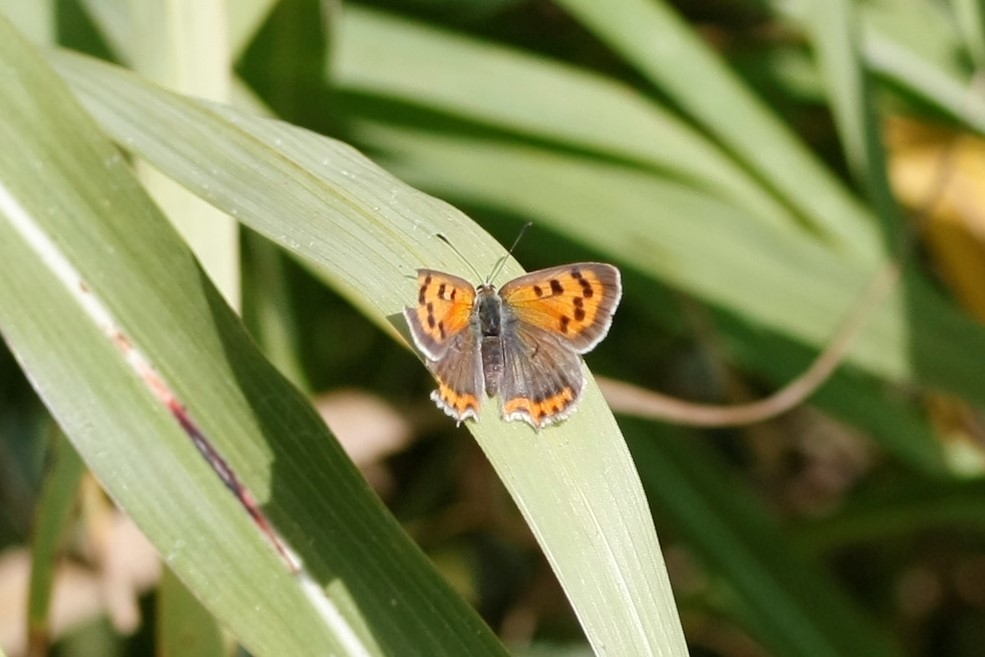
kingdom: Animalia
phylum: Arthropoda
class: Insecta
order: Lepidoptera
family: Lycaenidae
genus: Lycaena
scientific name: Lycaena phlaeas
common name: Small copper
